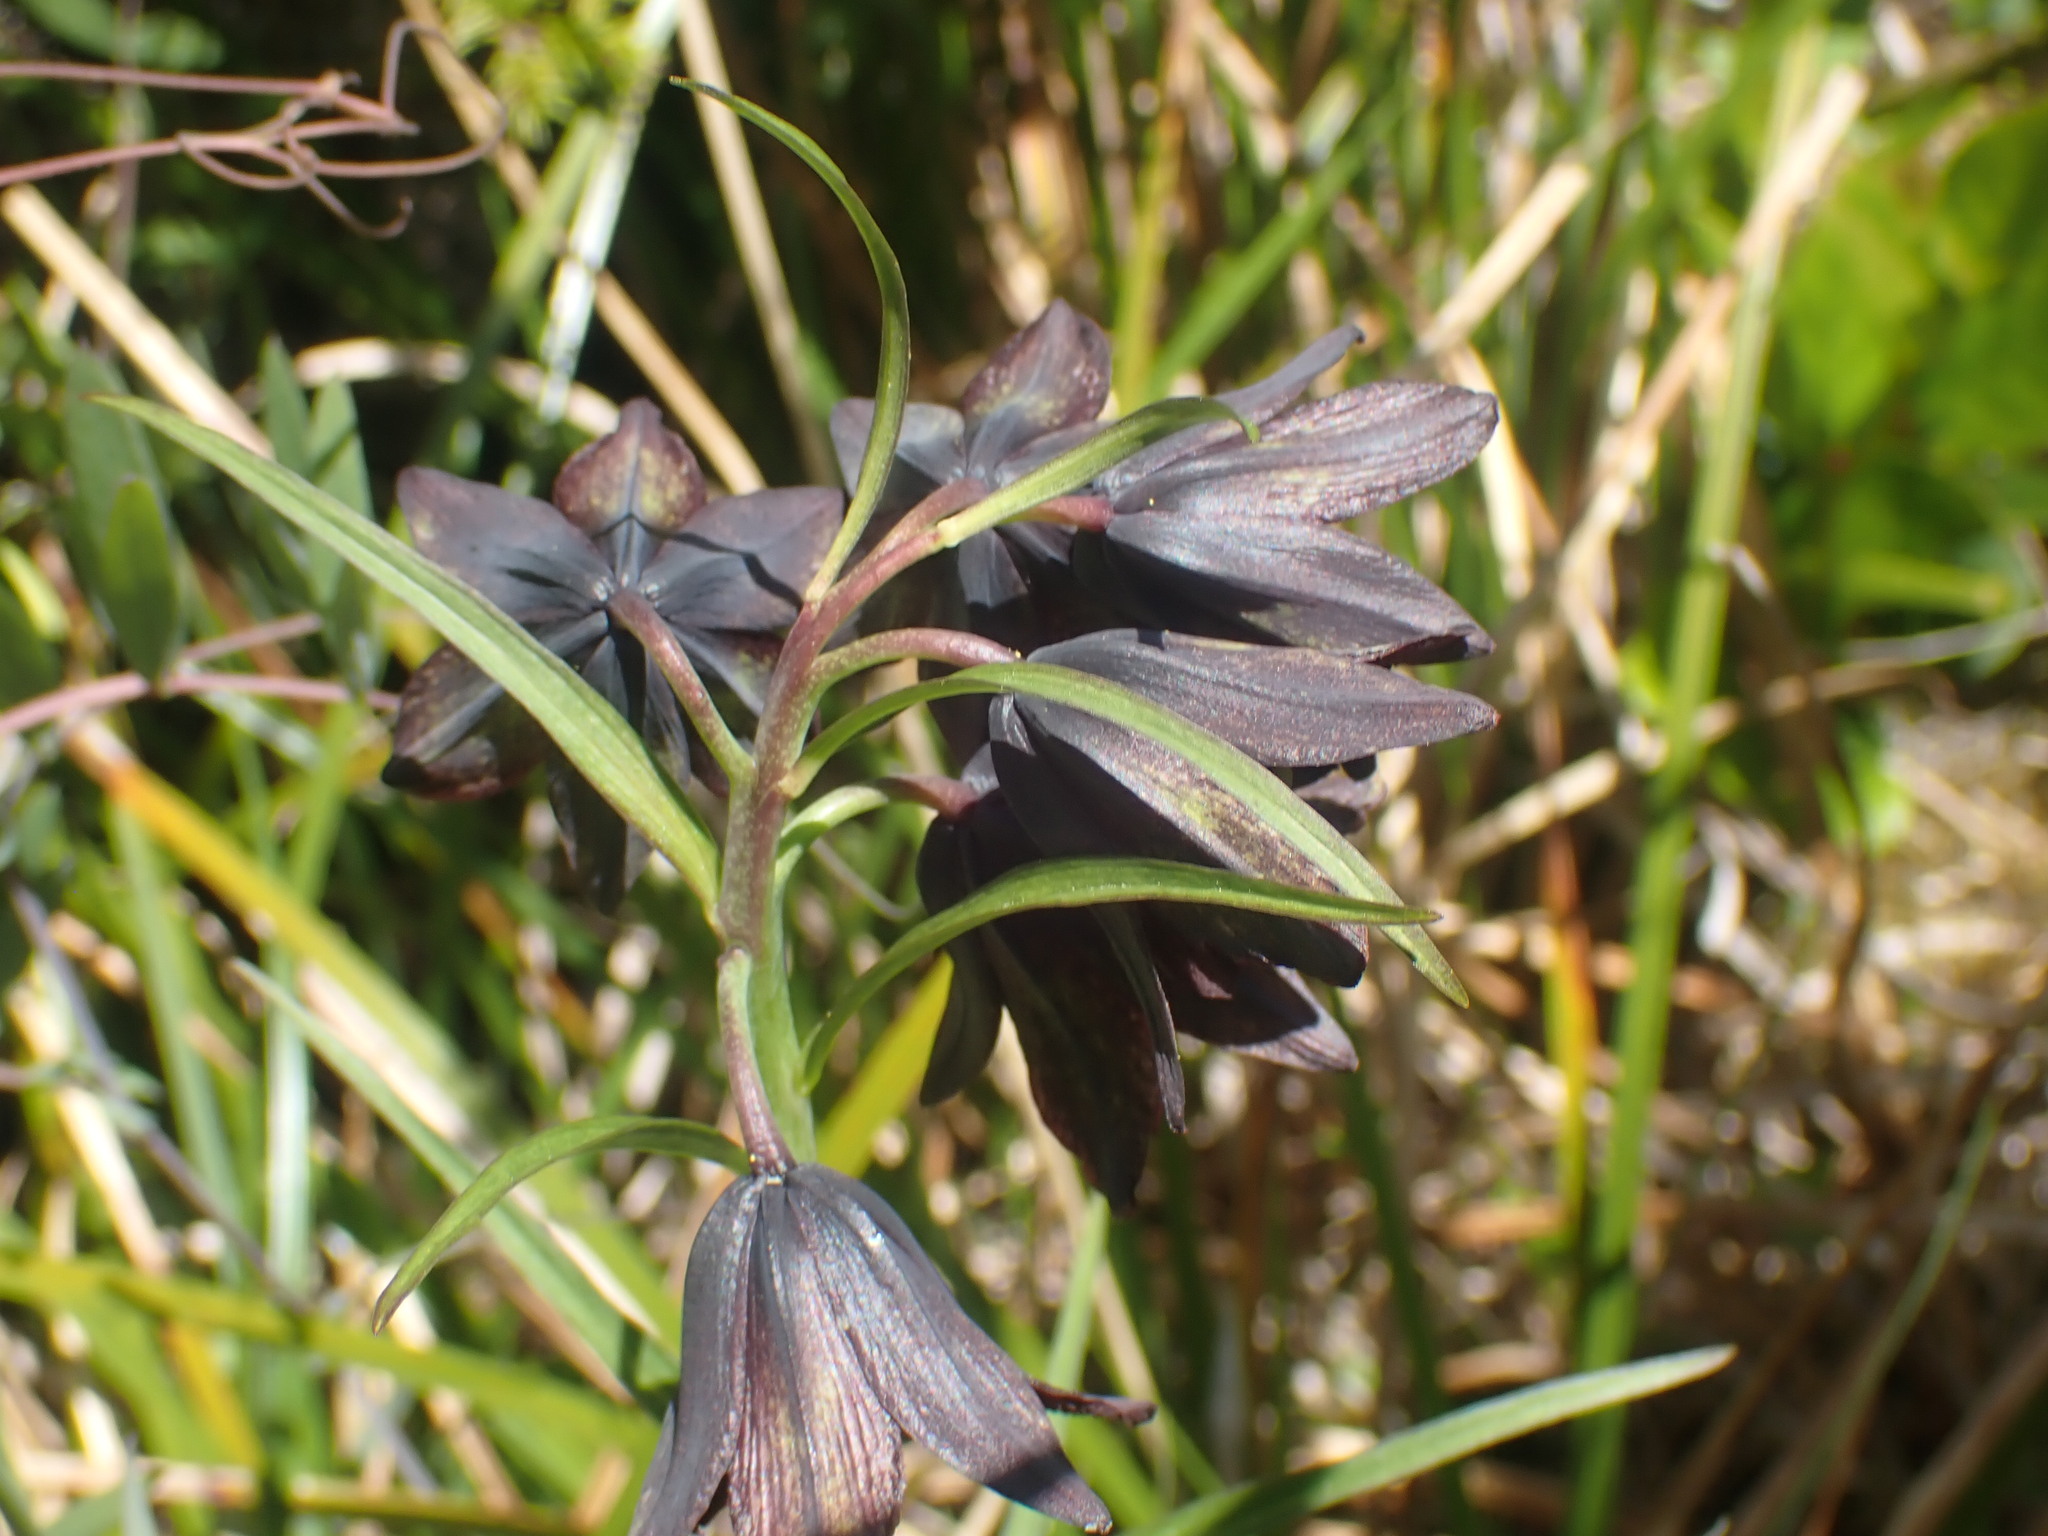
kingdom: Plantae
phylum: Tracheophyta
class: Liliopsida
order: Liliales
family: Liliaceae
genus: Fritillaria
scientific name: Fritillaria camschatcensis
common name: Kamchatka fritillary
